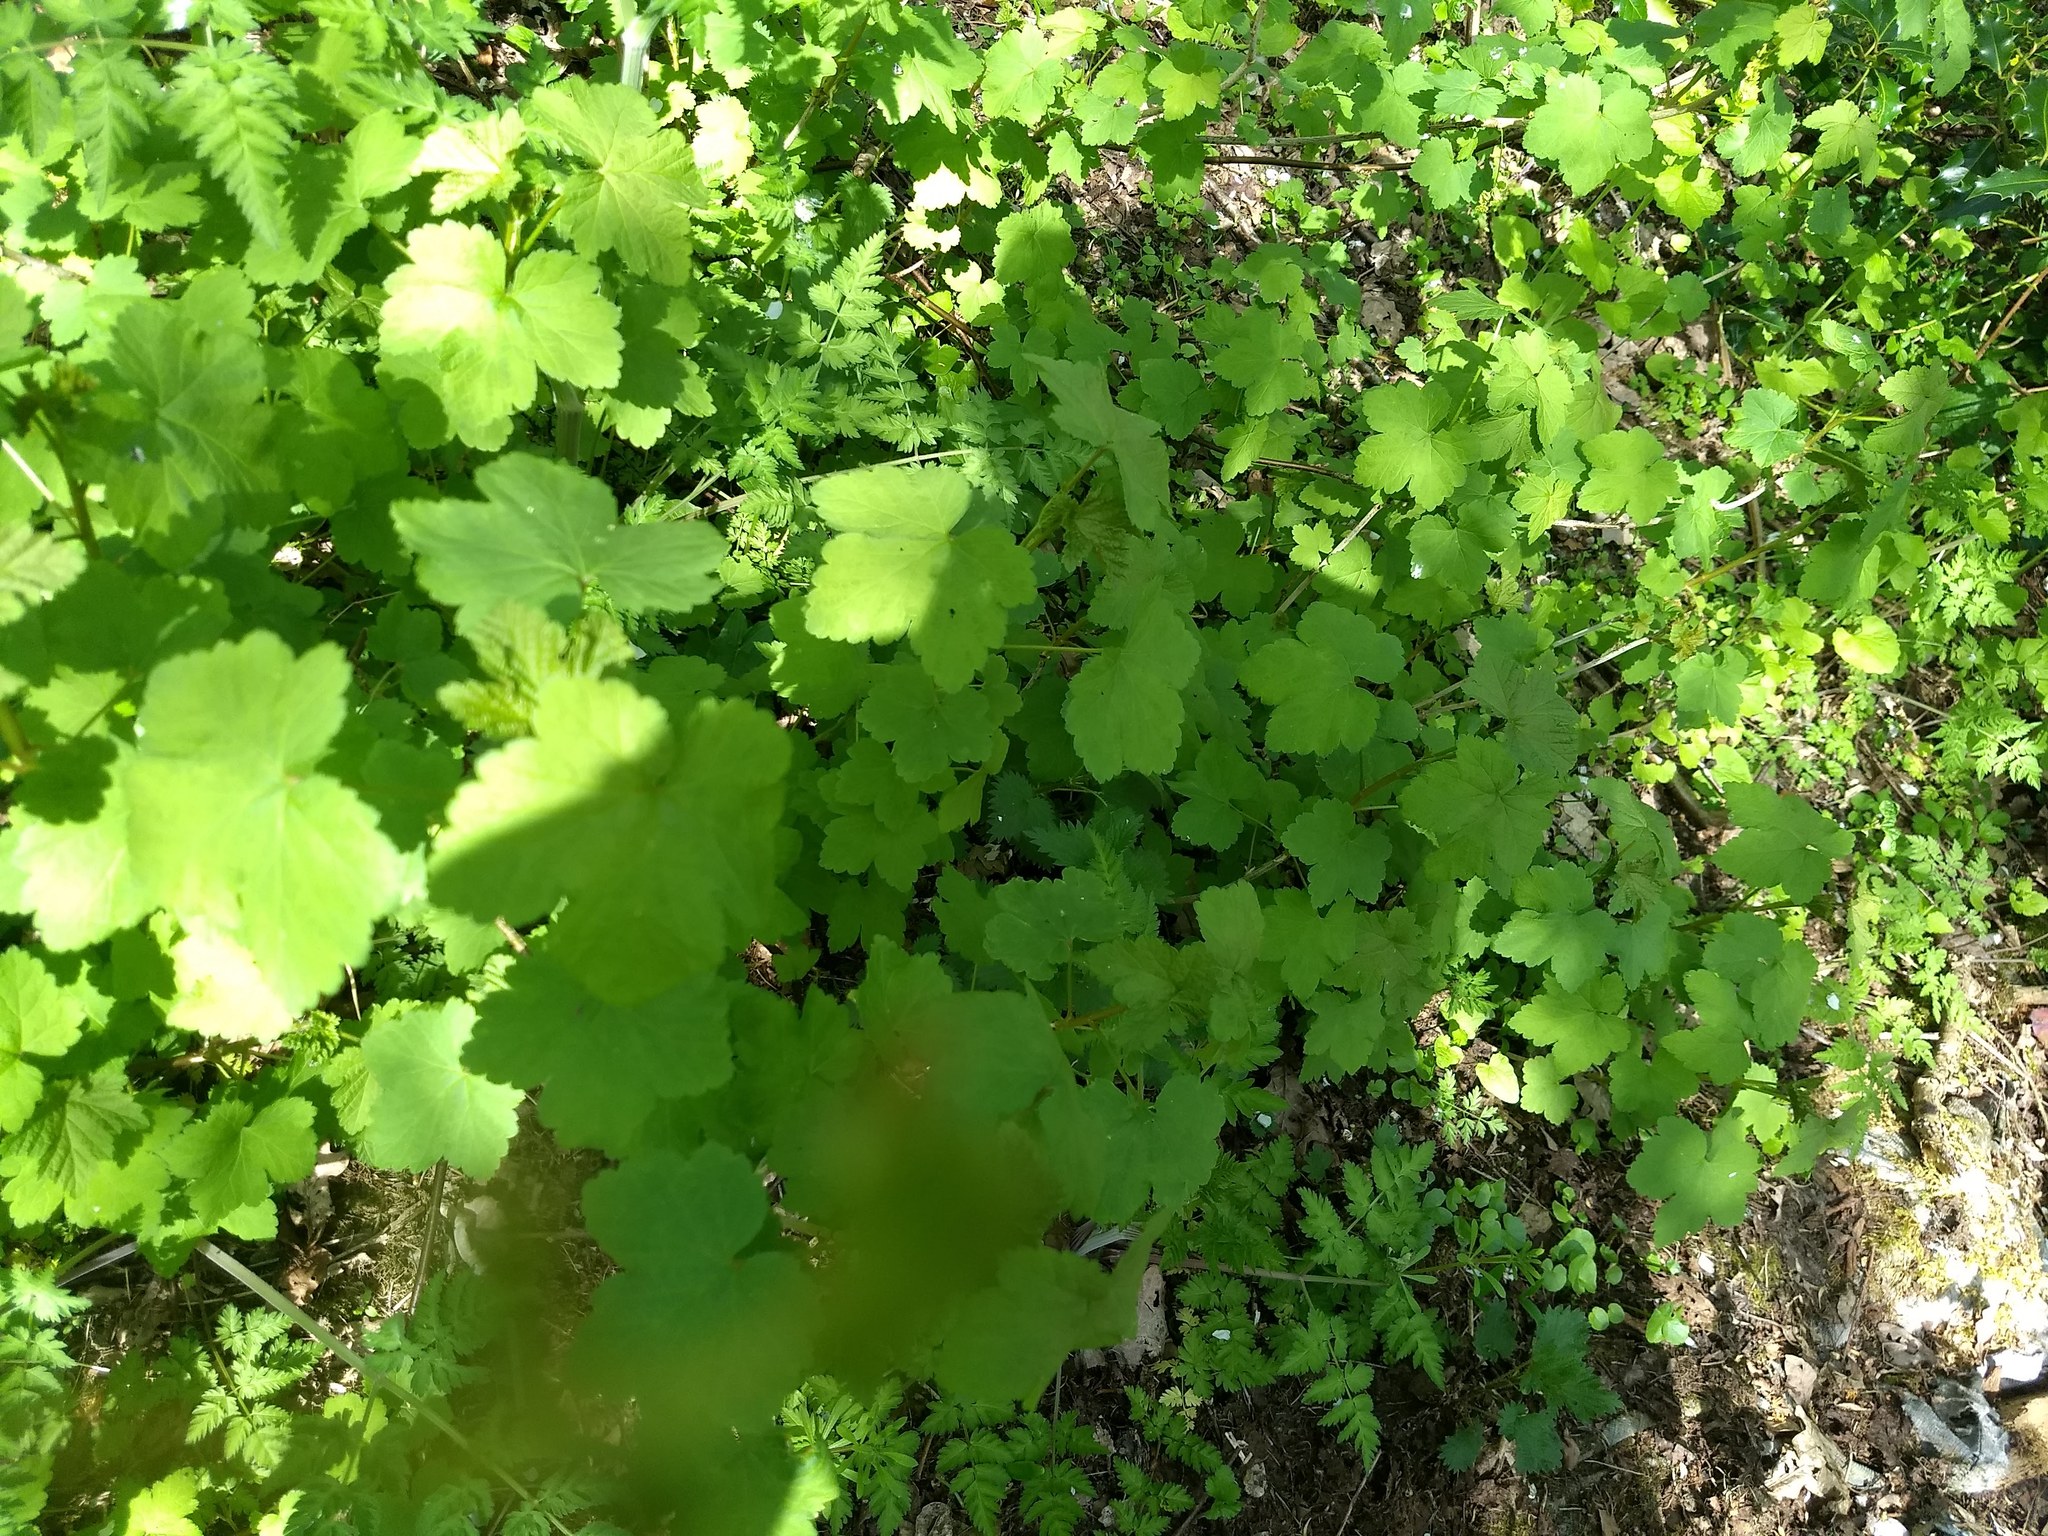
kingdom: Plantae
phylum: Tracheophyta
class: Magnoliopsida
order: Saxifragales
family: Grossulariaceae
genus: Ribes
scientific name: Ribes rubrum
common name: Red currant
